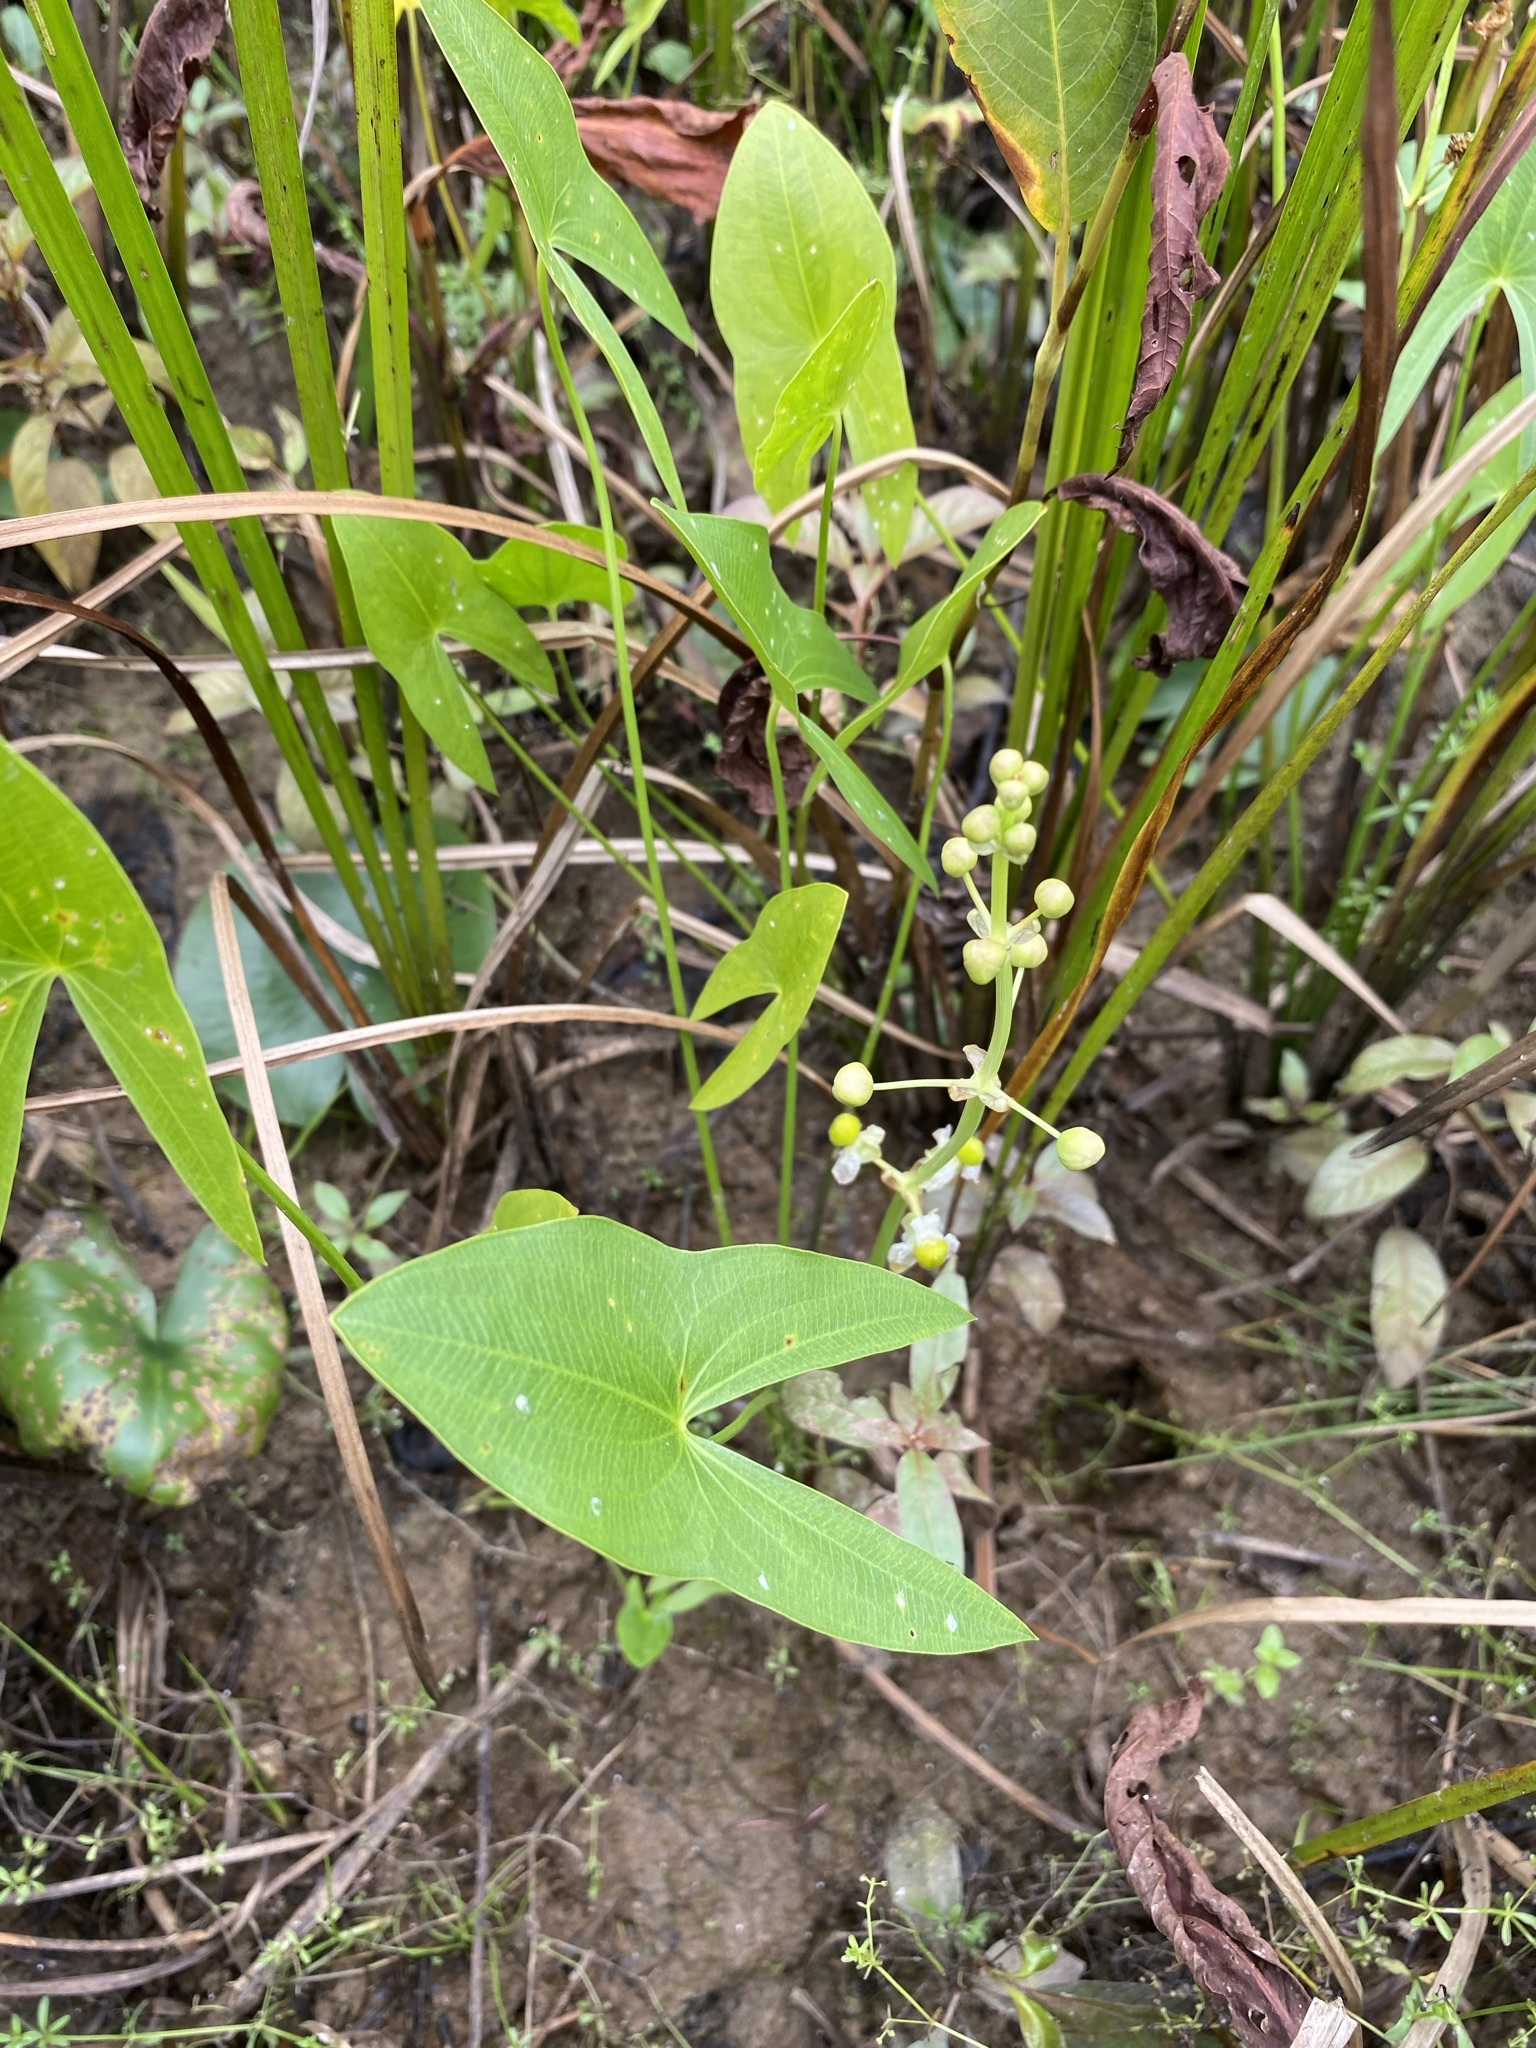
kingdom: Plantae
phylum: Tracheophyta
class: Liliopsida
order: Alismatales
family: Alismataceae
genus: Sagittaria
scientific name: Sagittaria latifolia
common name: Duck-potato
